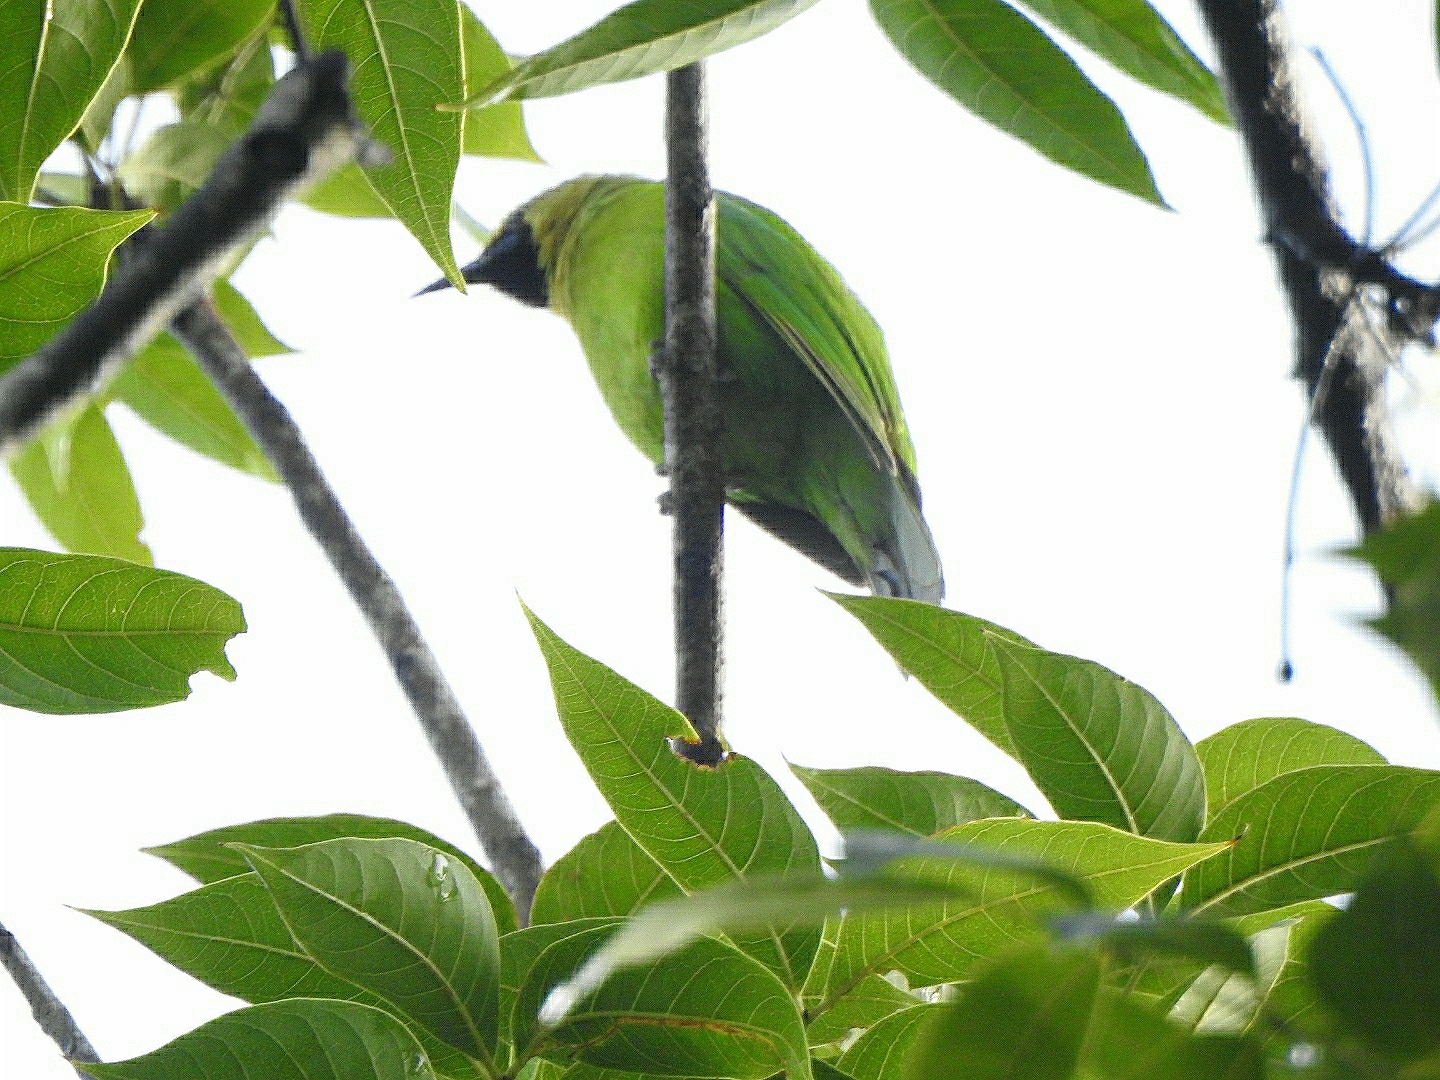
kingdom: Animalia
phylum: Chordata
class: Aves
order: Passeriformes
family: Chloropseidae
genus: Chloropsis
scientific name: Chloropsis jerdoni
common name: Jerdon's leafbird
